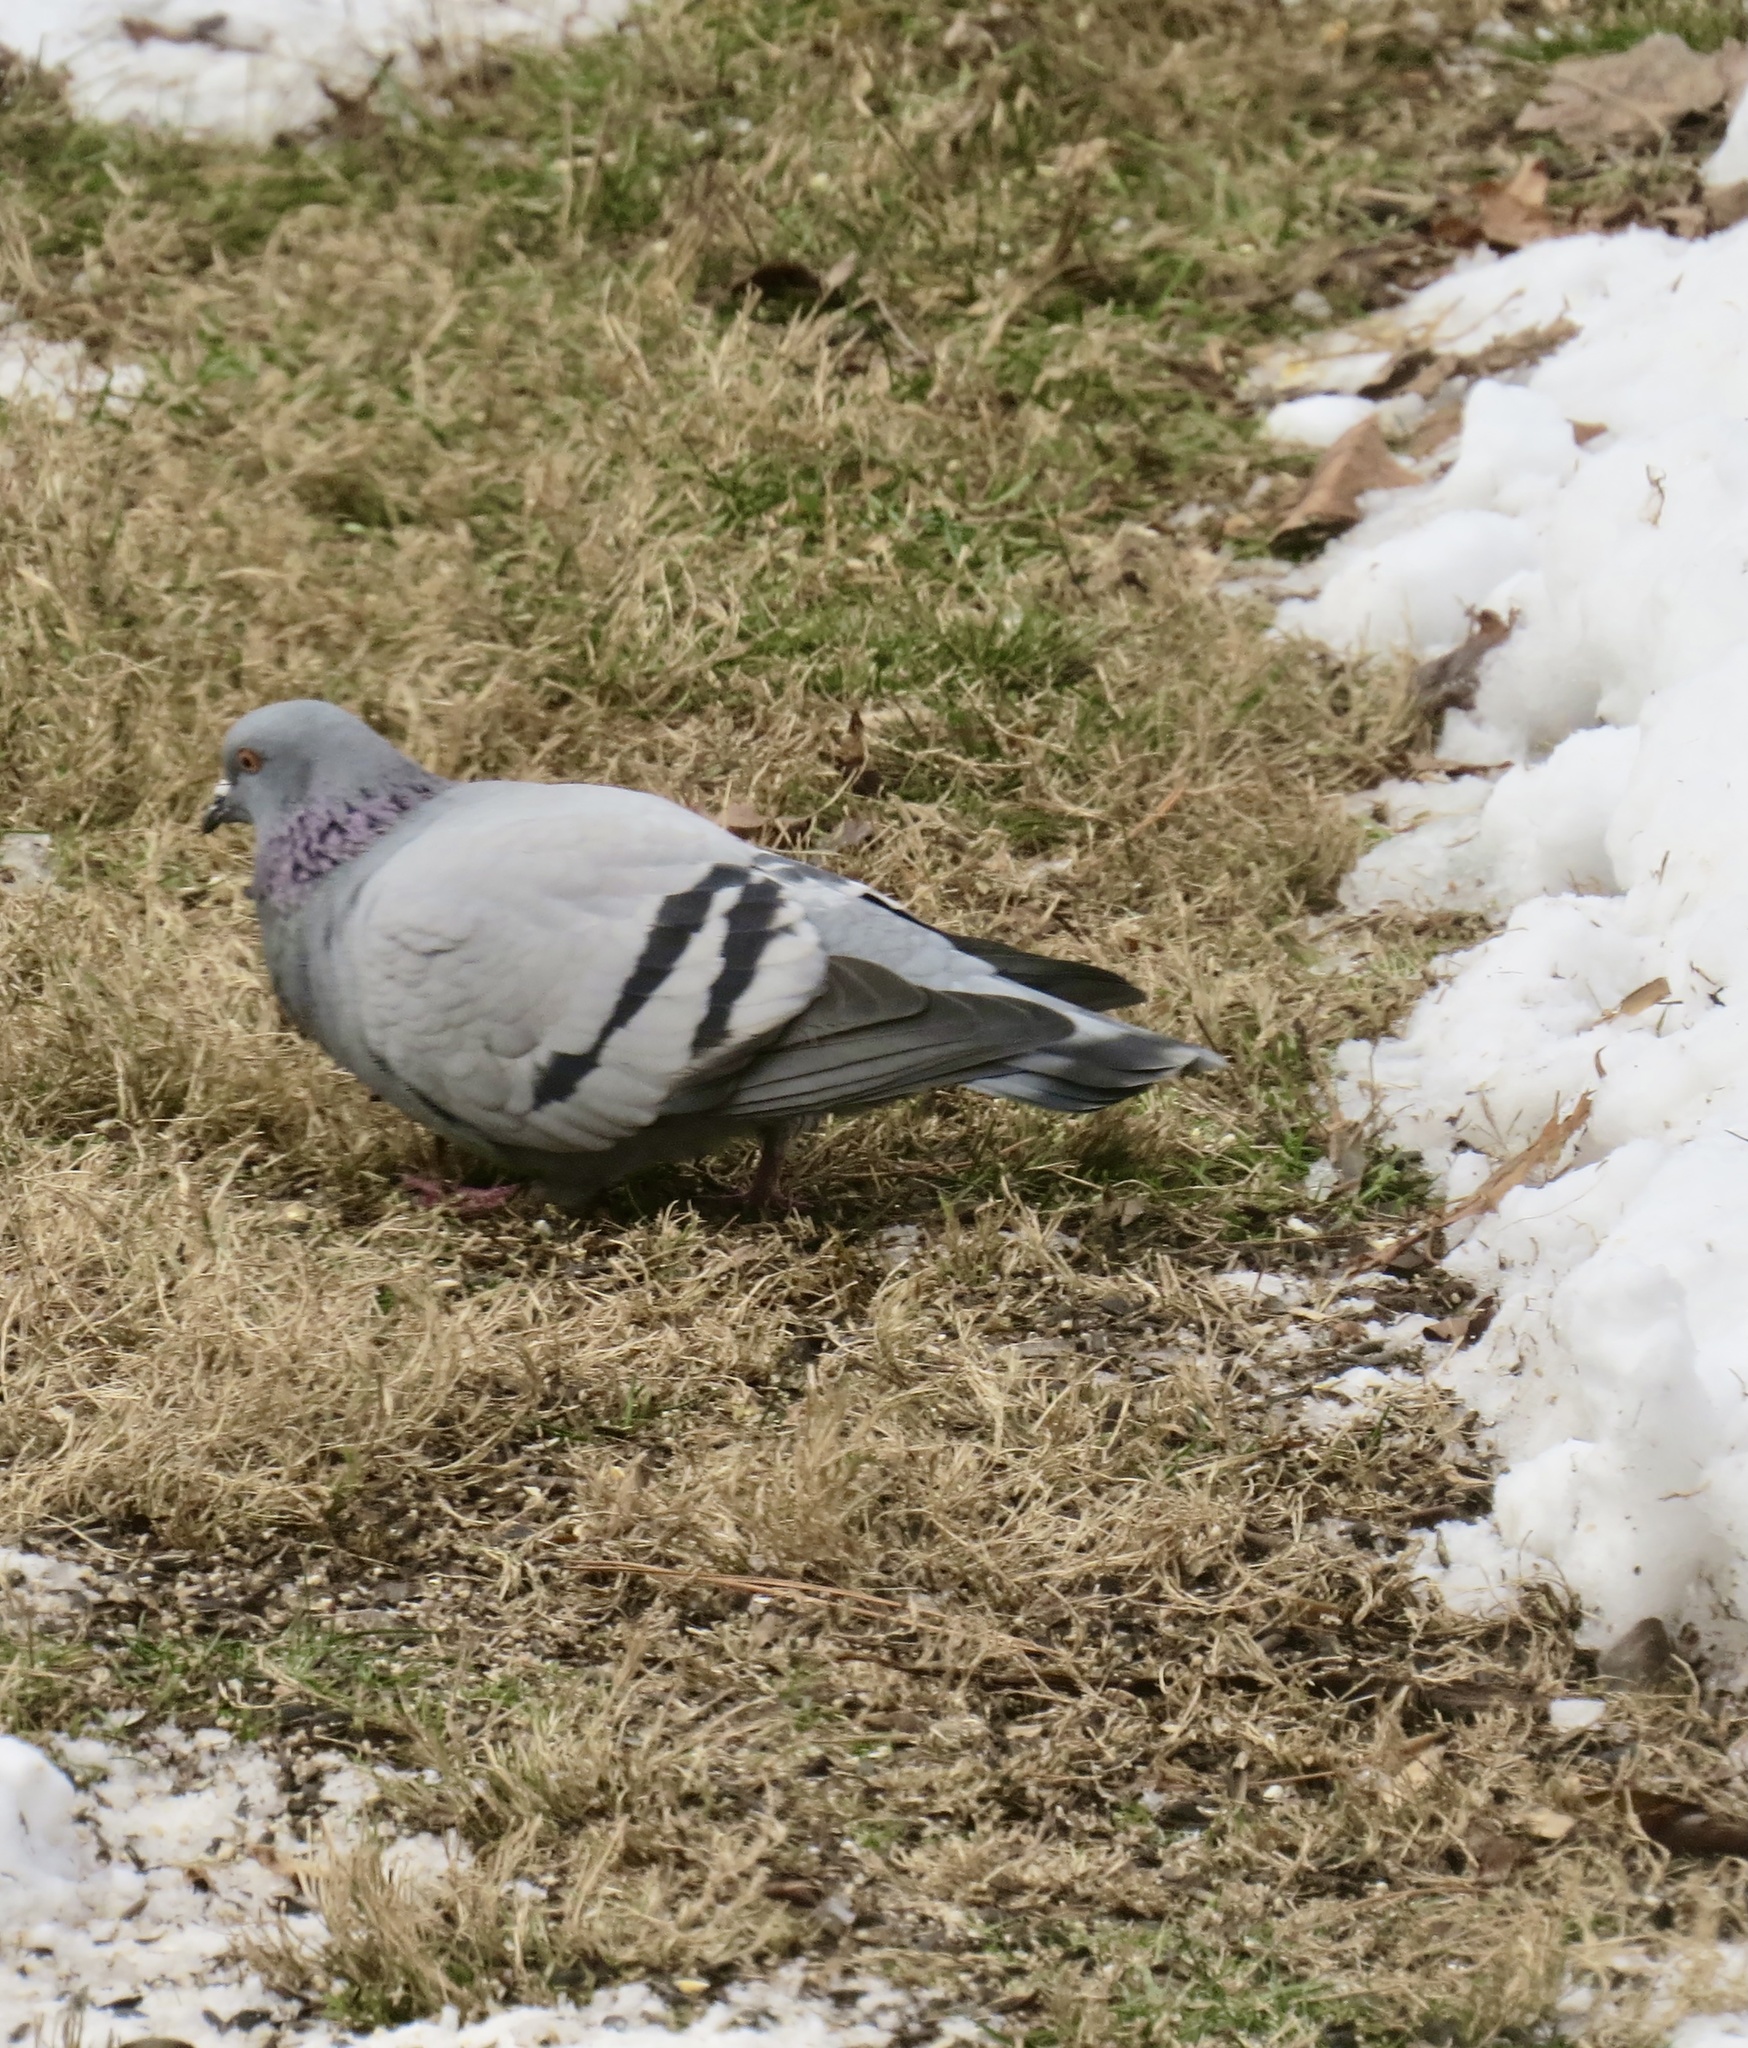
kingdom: Animalia
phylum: Chordata
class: Aves
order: Columbiformes
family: Columbidae
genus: Columba
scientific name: Columba livia
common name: Rock pigeon
